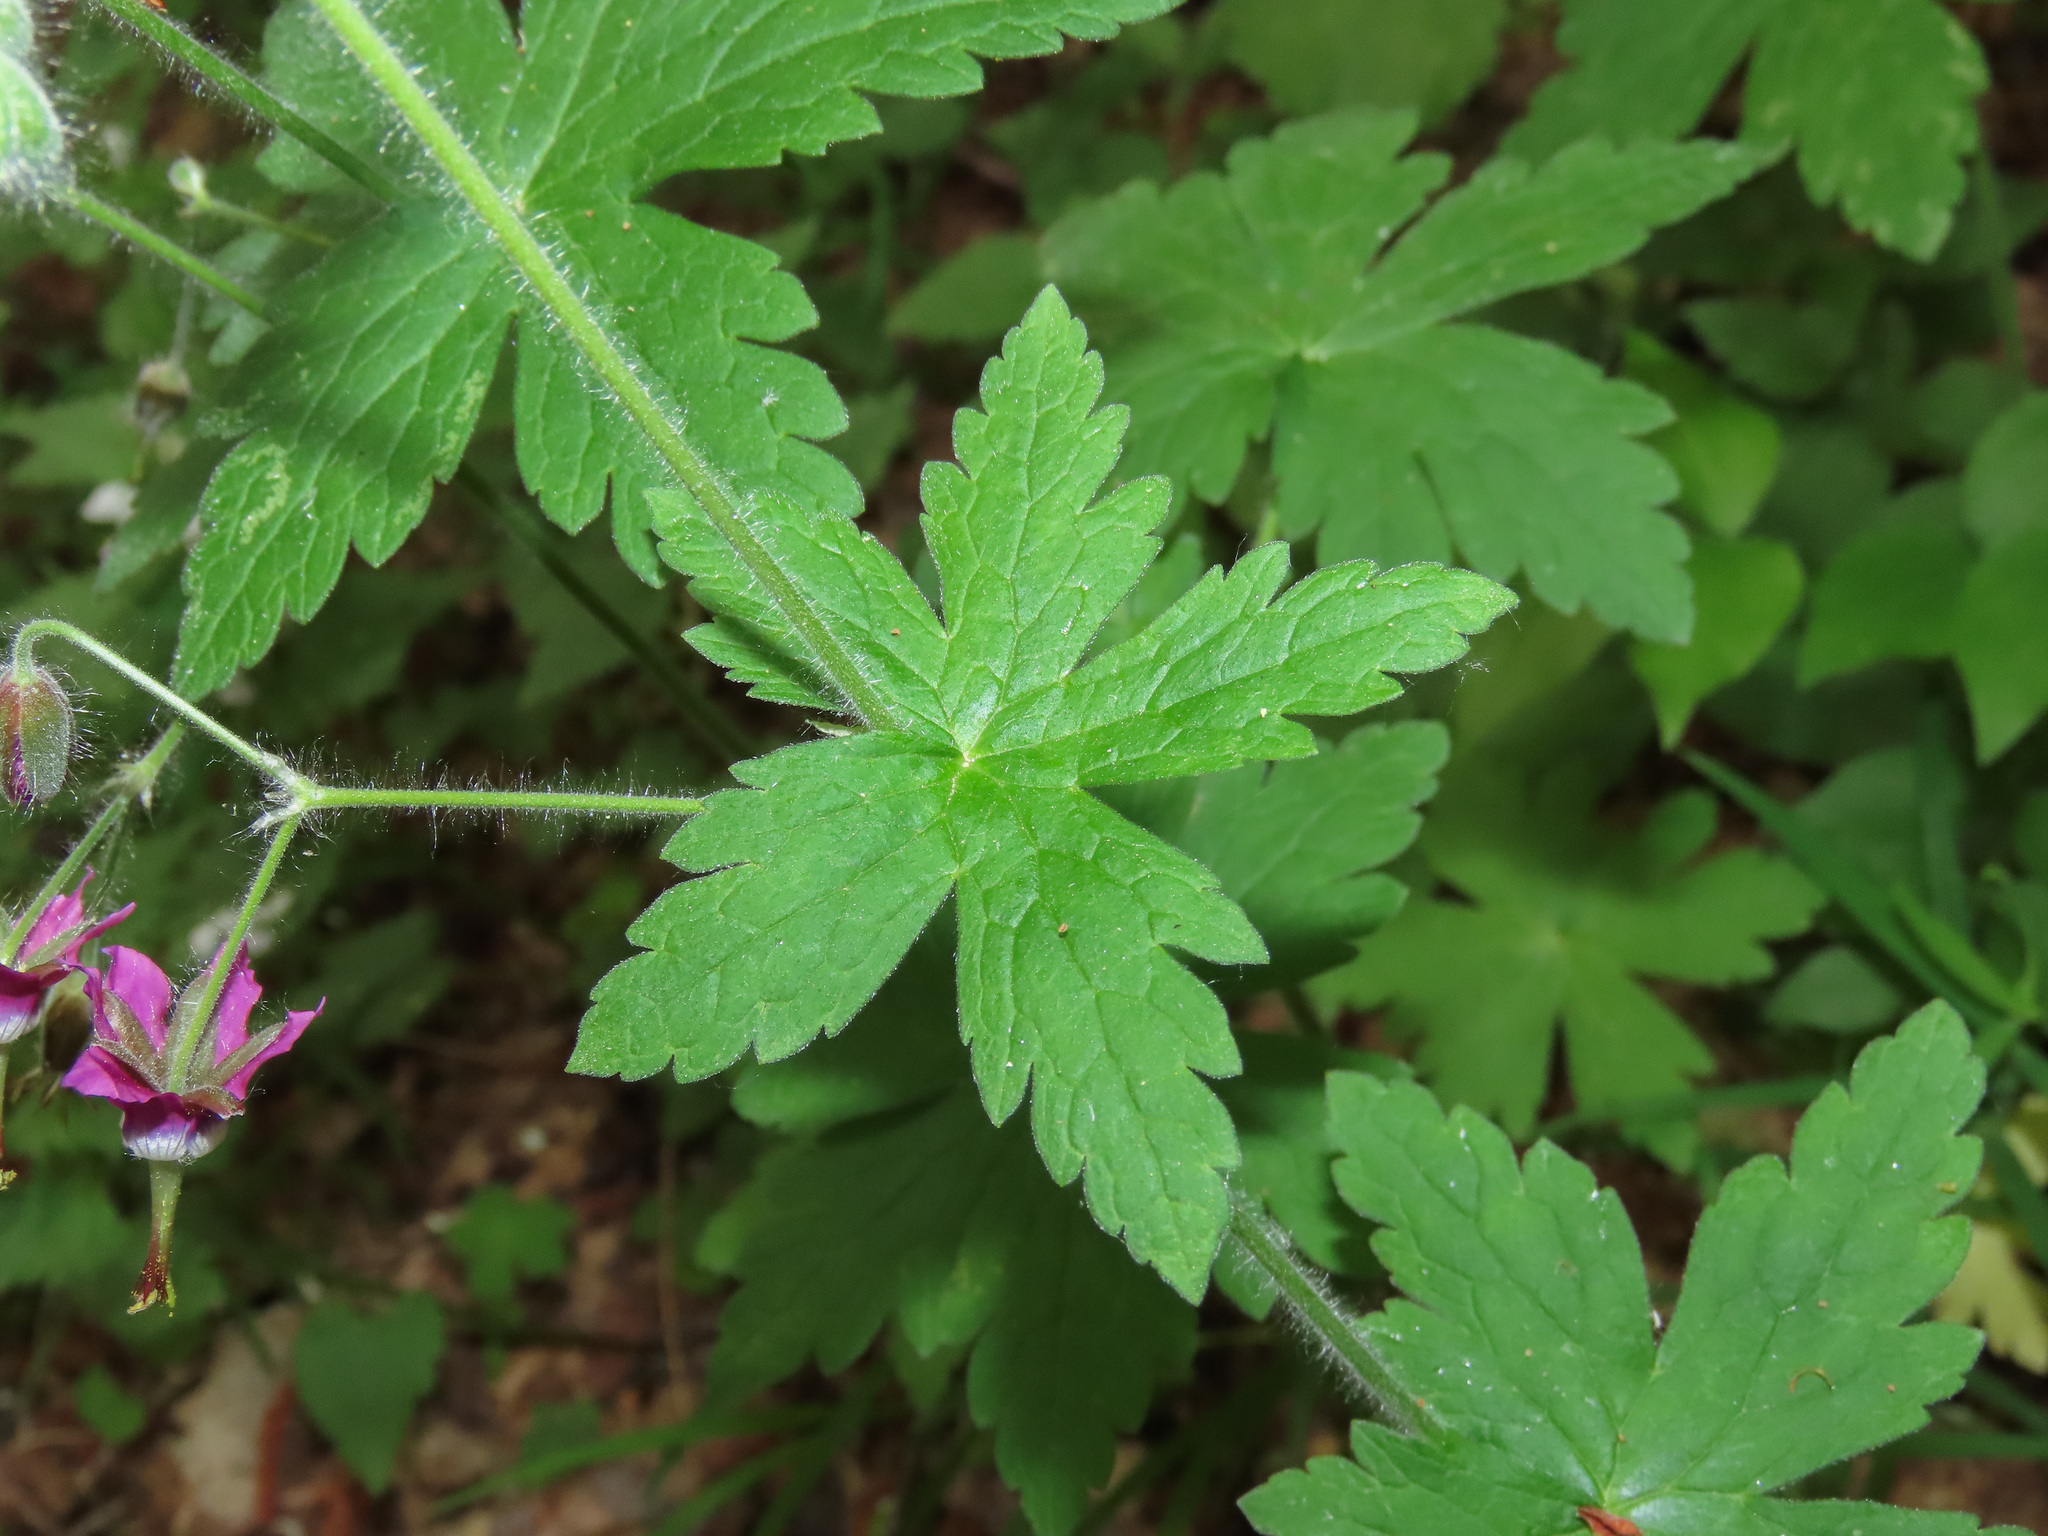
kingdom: Plantae
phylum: Tracheophyta
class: Magnoliopsida
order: Geraniales
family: Geraniaceae
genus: Geranium
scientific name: Geranium reflexum
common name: Reflexed crane's-bill
